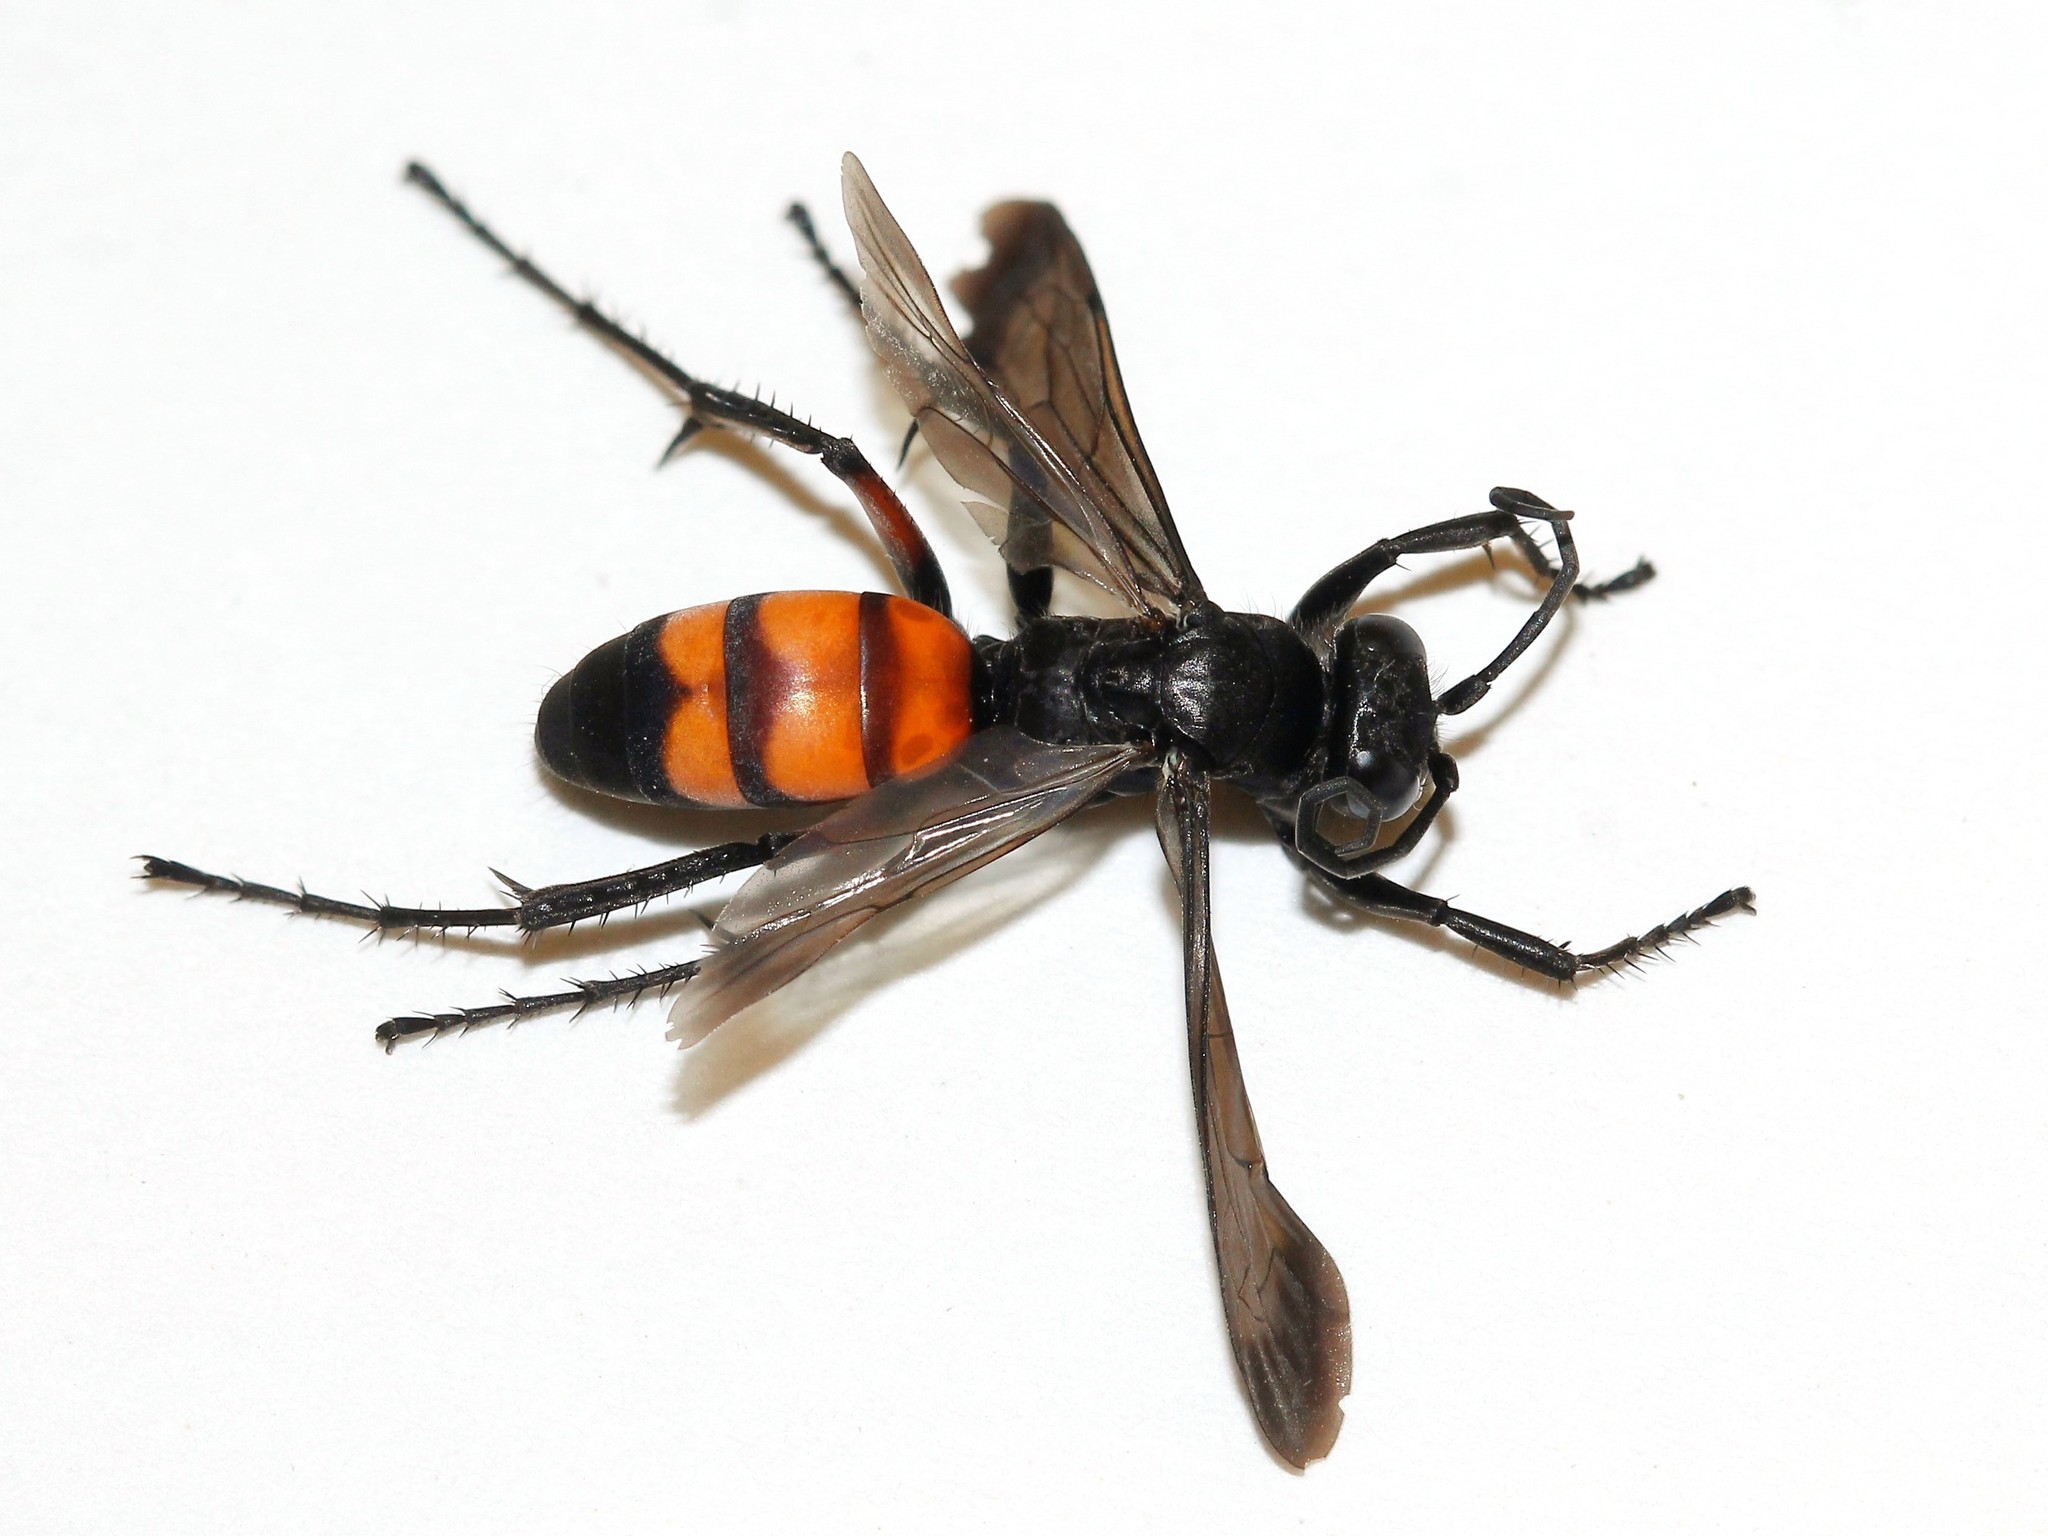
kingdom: Animalia
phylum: Arthropoda
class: Insecta
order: Hymenoptera
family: Pompilidae
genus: Anoplius
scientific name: Anoplius viaticus
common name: Black banded spider wasp
